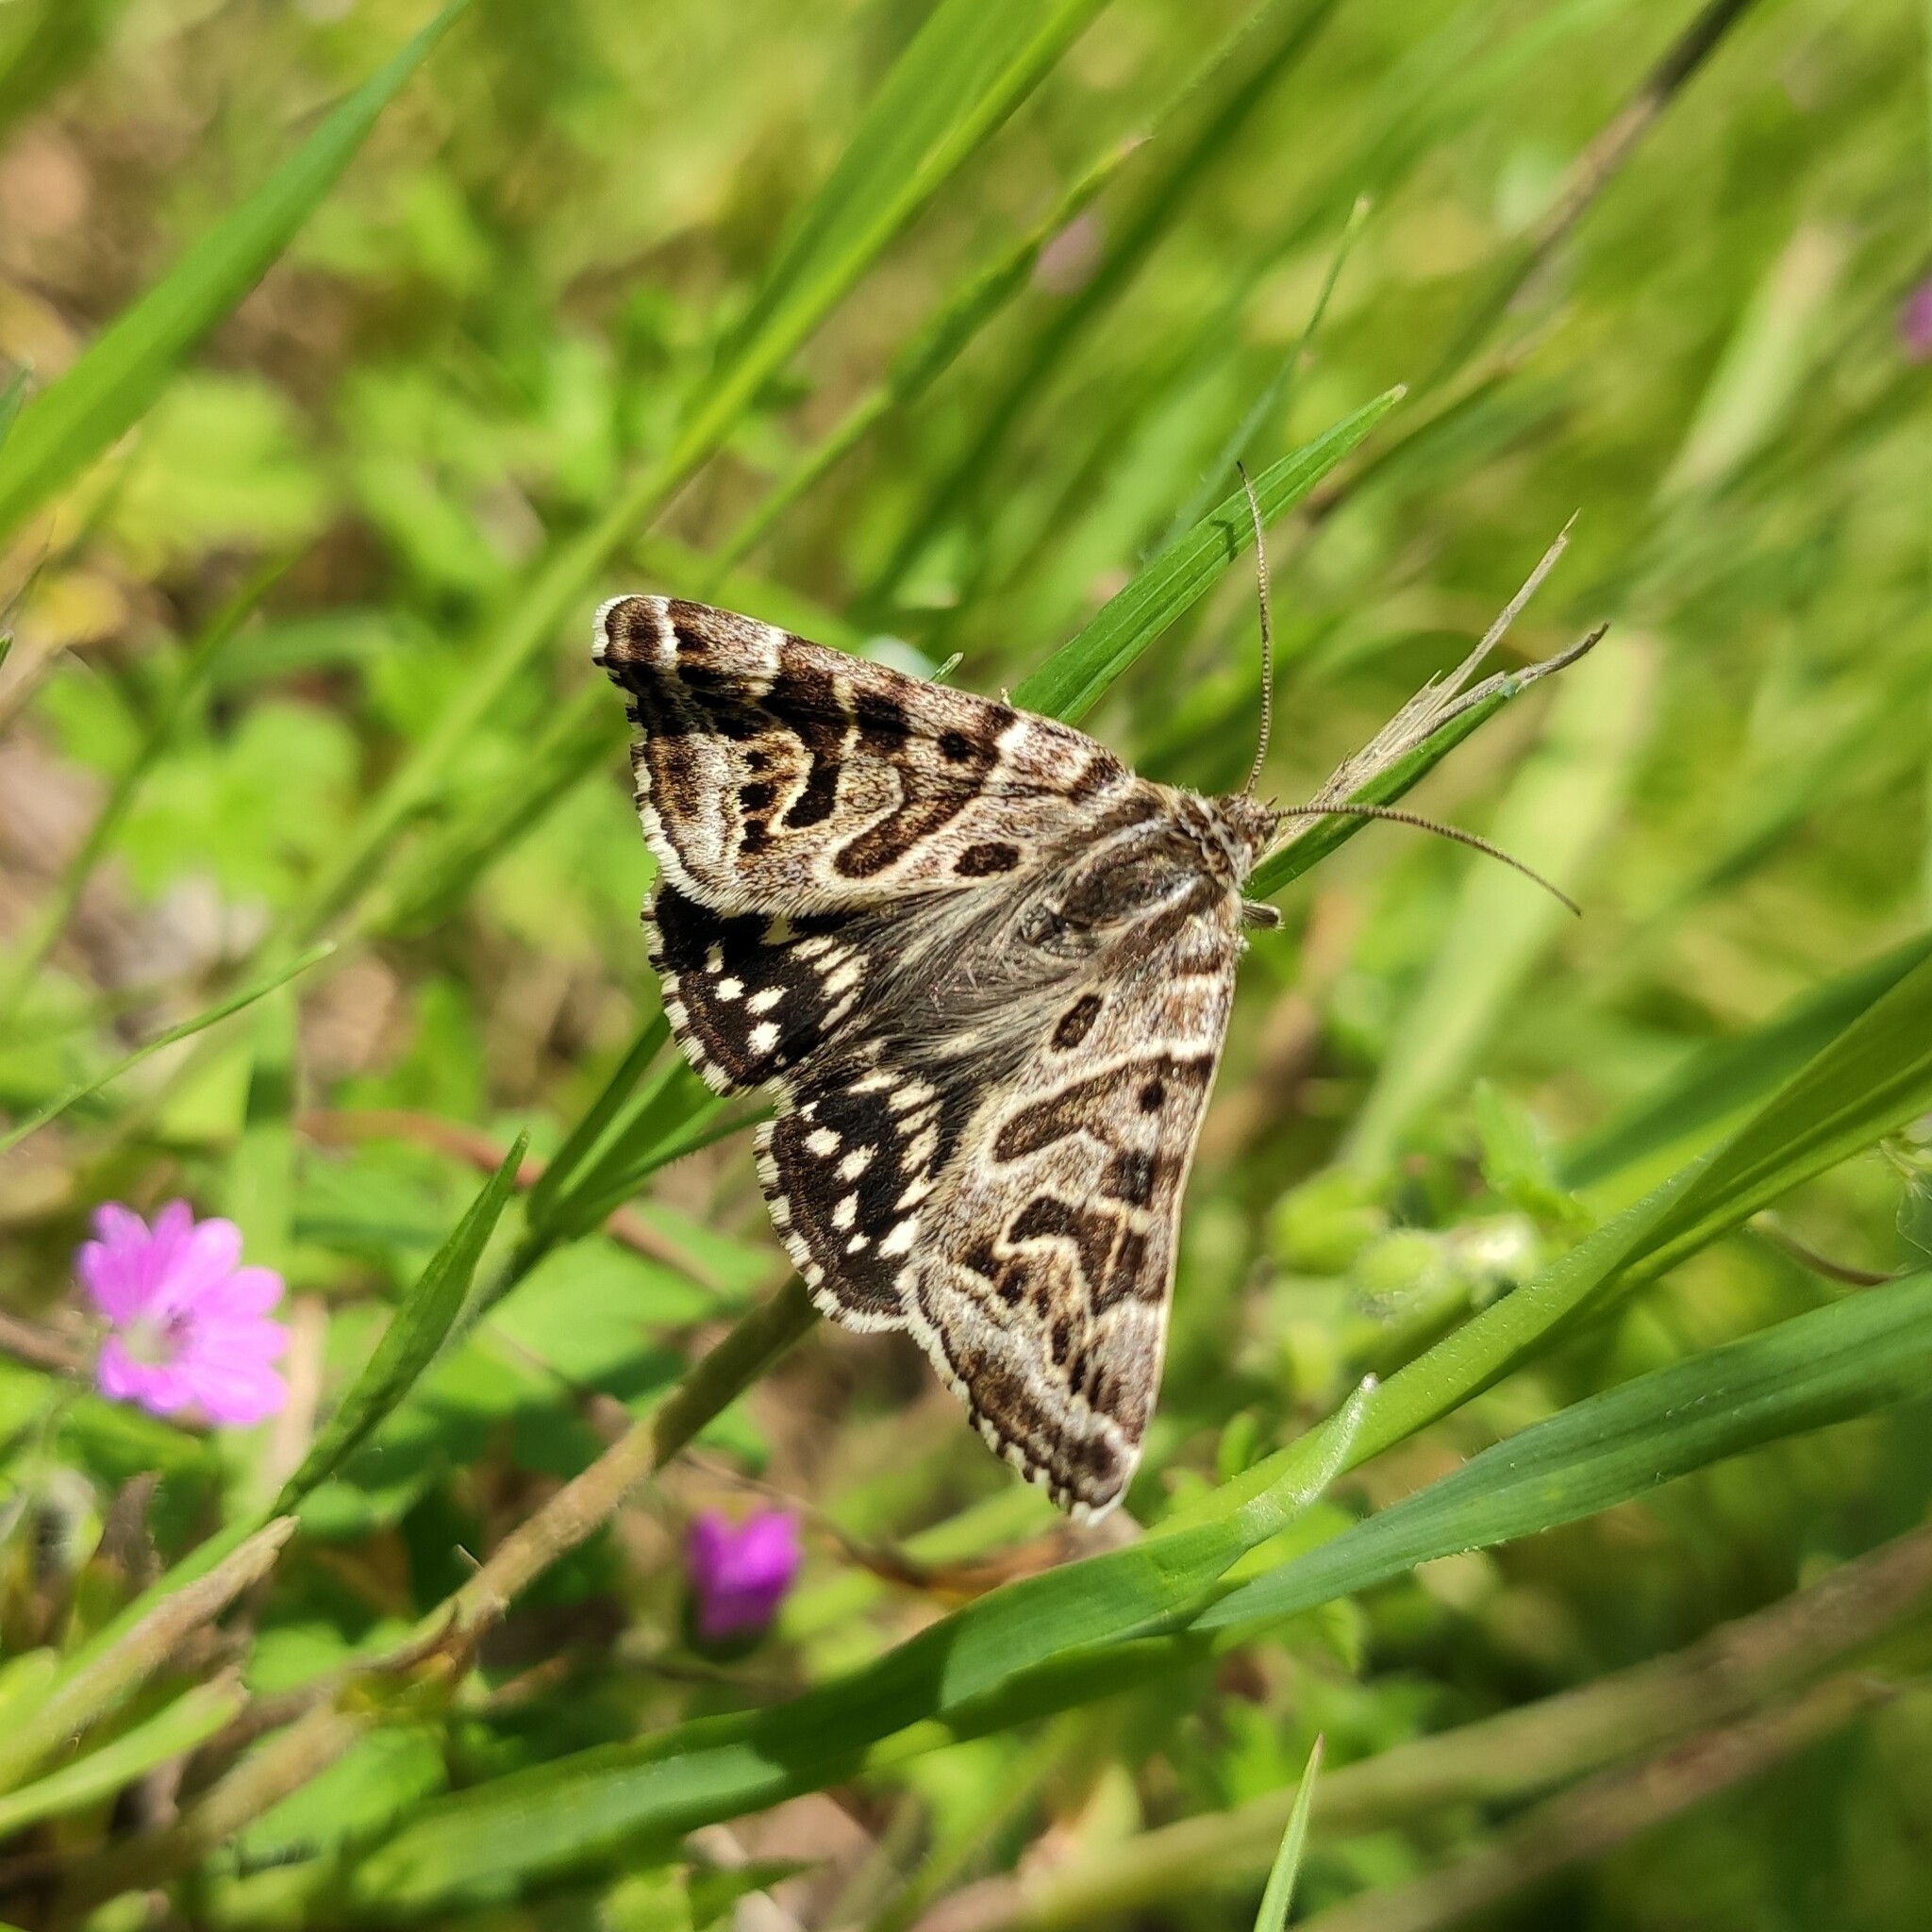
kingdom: Animalia
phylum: Arthropoda
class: Insecta
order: Lepidoptera
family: Erebidae
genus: Callistege
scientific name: Callistege mi
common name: Mother shipton
